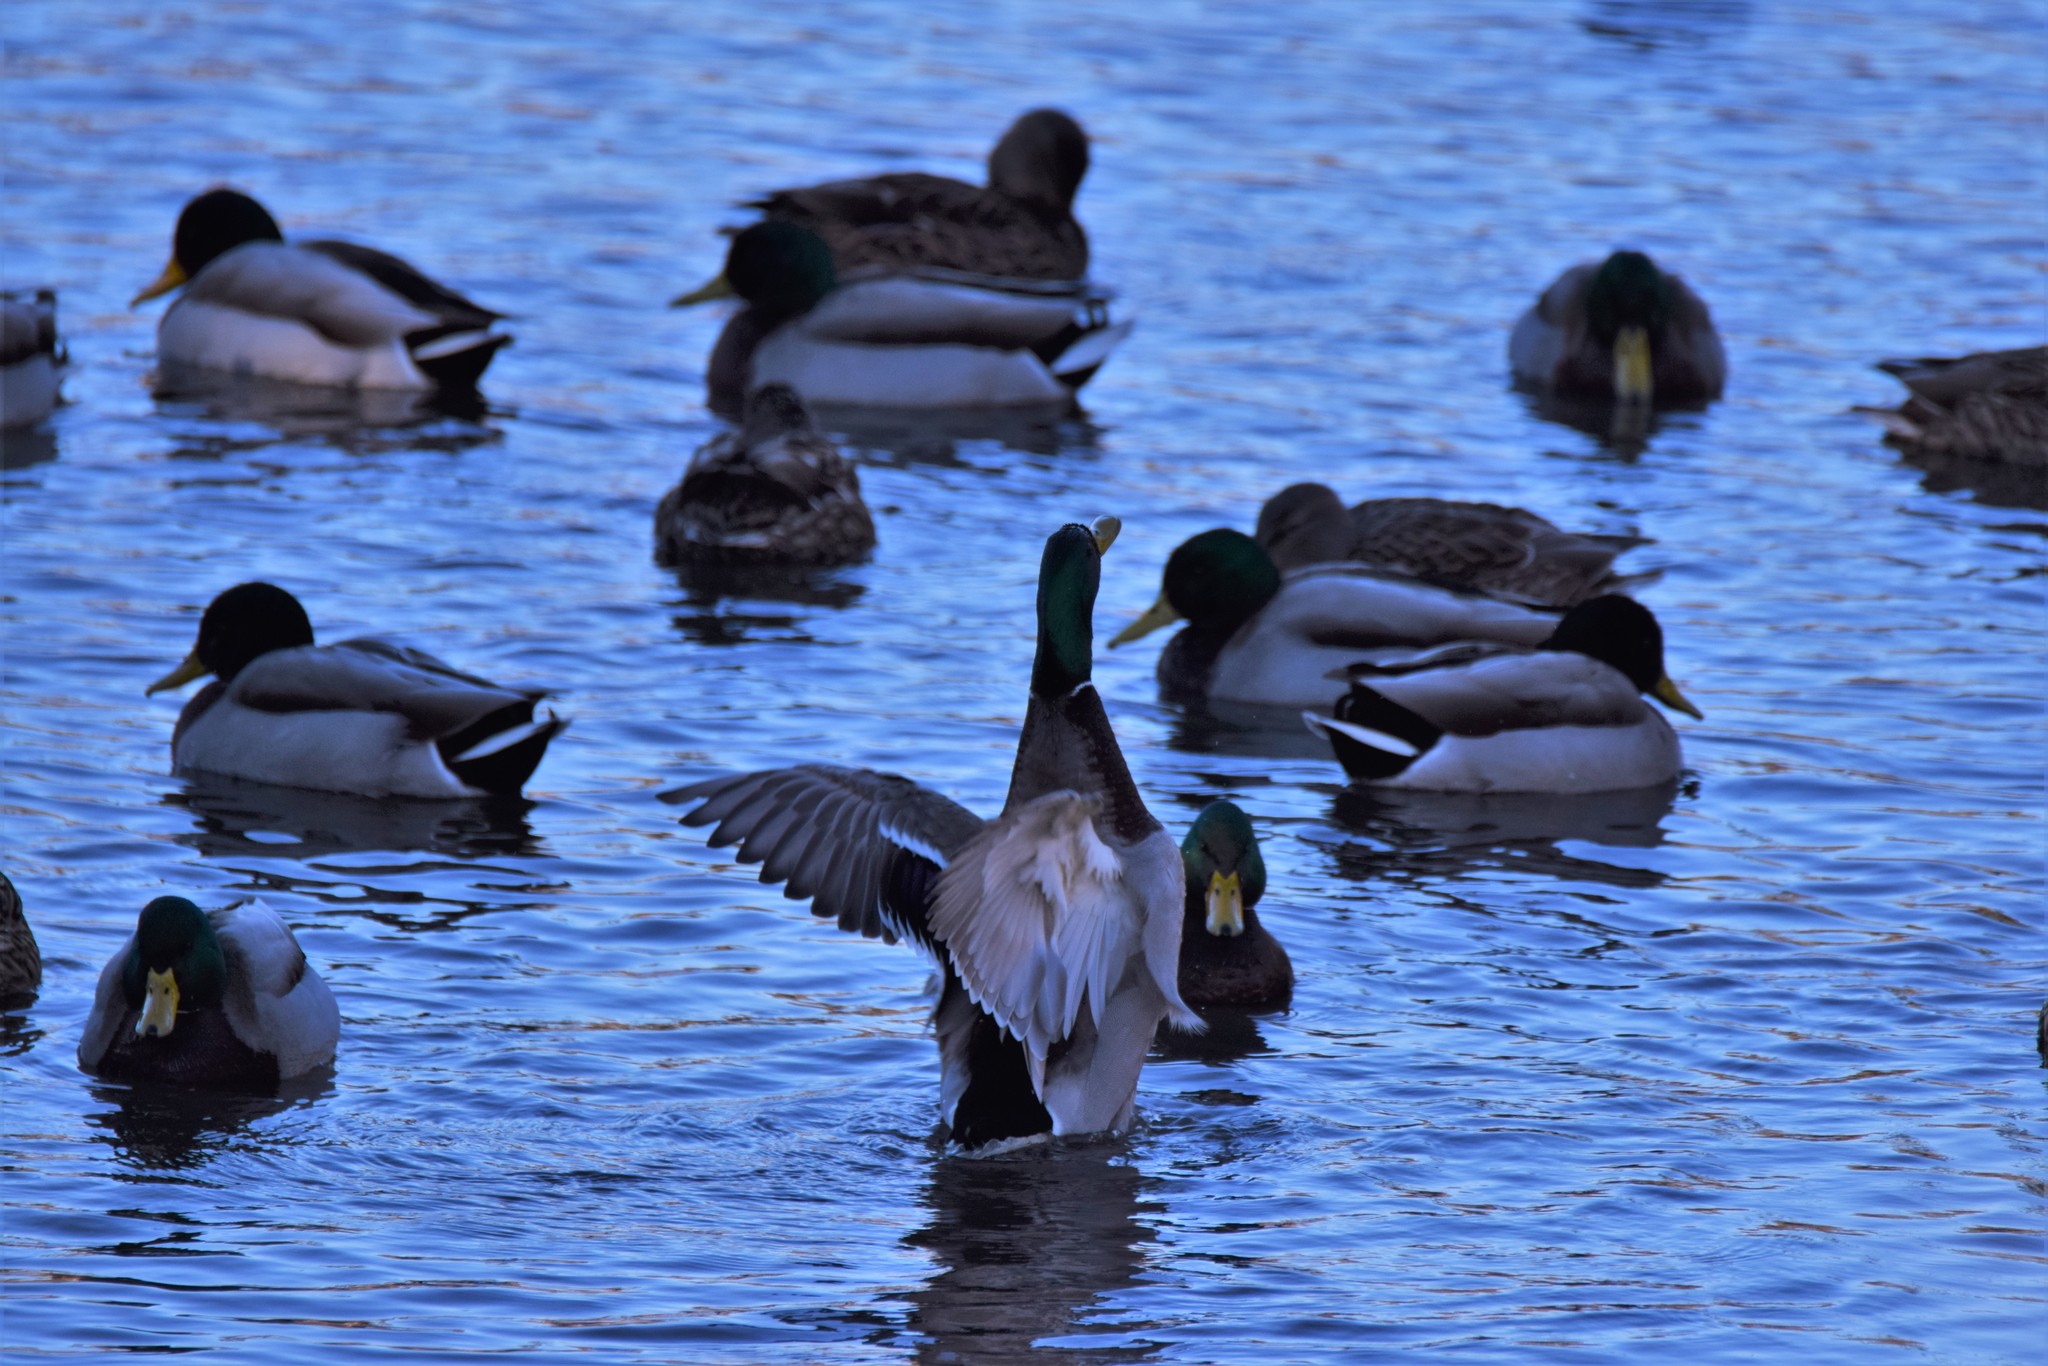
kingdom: Animalia
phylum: Chordata
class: Aves
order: Anseriformes
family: Anatidae
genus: Anas
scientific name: Anas platyrhynchos
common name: Mallard
